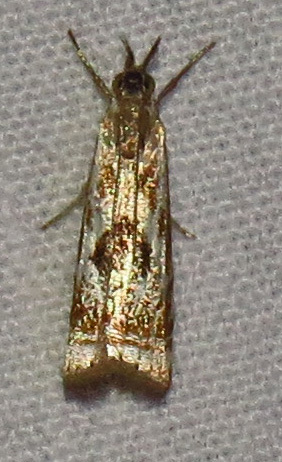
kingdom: Animalia
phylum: Arthropoda
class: Insecta
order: Lepidoptera
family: Crambidae
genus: Microcrambus
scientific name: Microcrambus elegans
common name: Elegant grass-veneer
